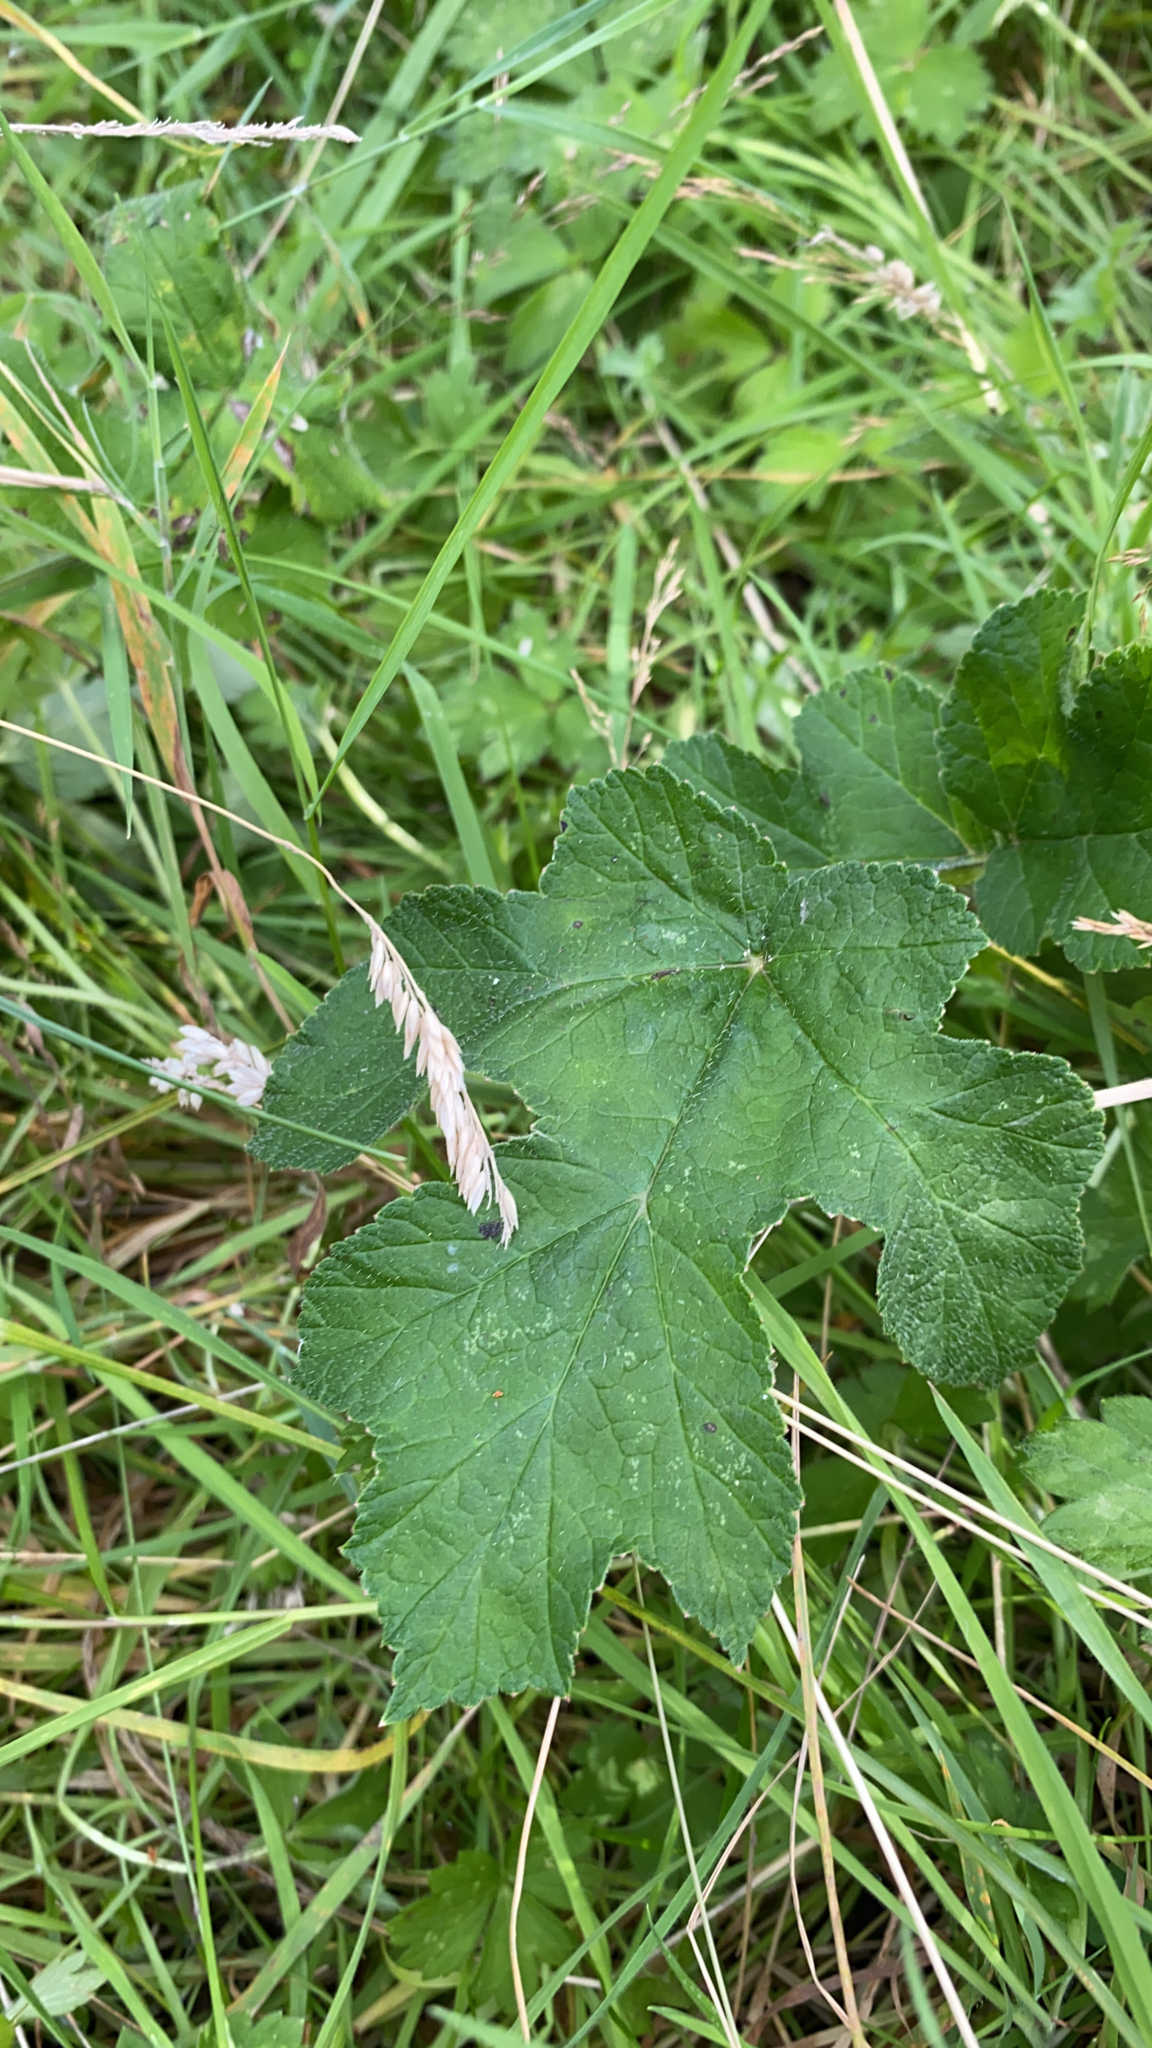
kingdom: Plantae
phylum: Tracheophyta
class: Magnoliopsida
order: Apiales
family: Apiaceae
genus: Heracleum
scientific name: Heracleum sphondylium
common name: Hogweed
